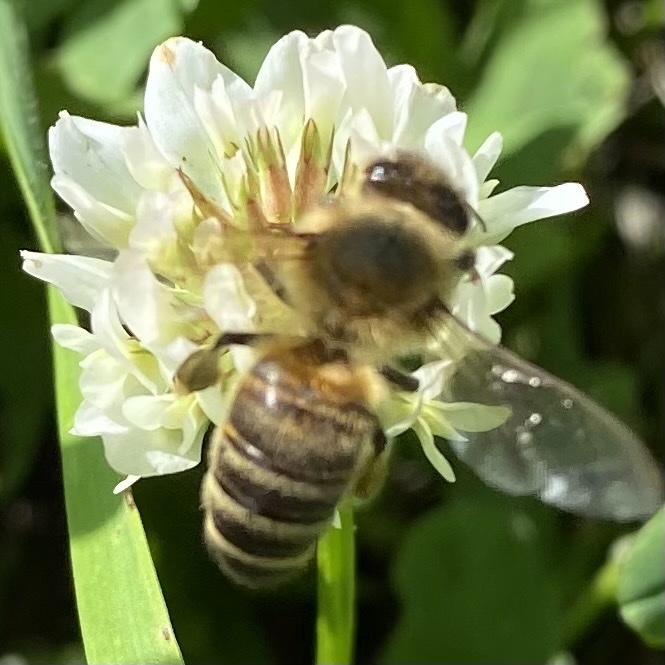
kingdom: Animalia
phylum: Arthropoda
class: Insecta
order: Hymenoptera
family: Apidae
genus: Apis
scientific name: Apis mellifera
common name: Honey bee
